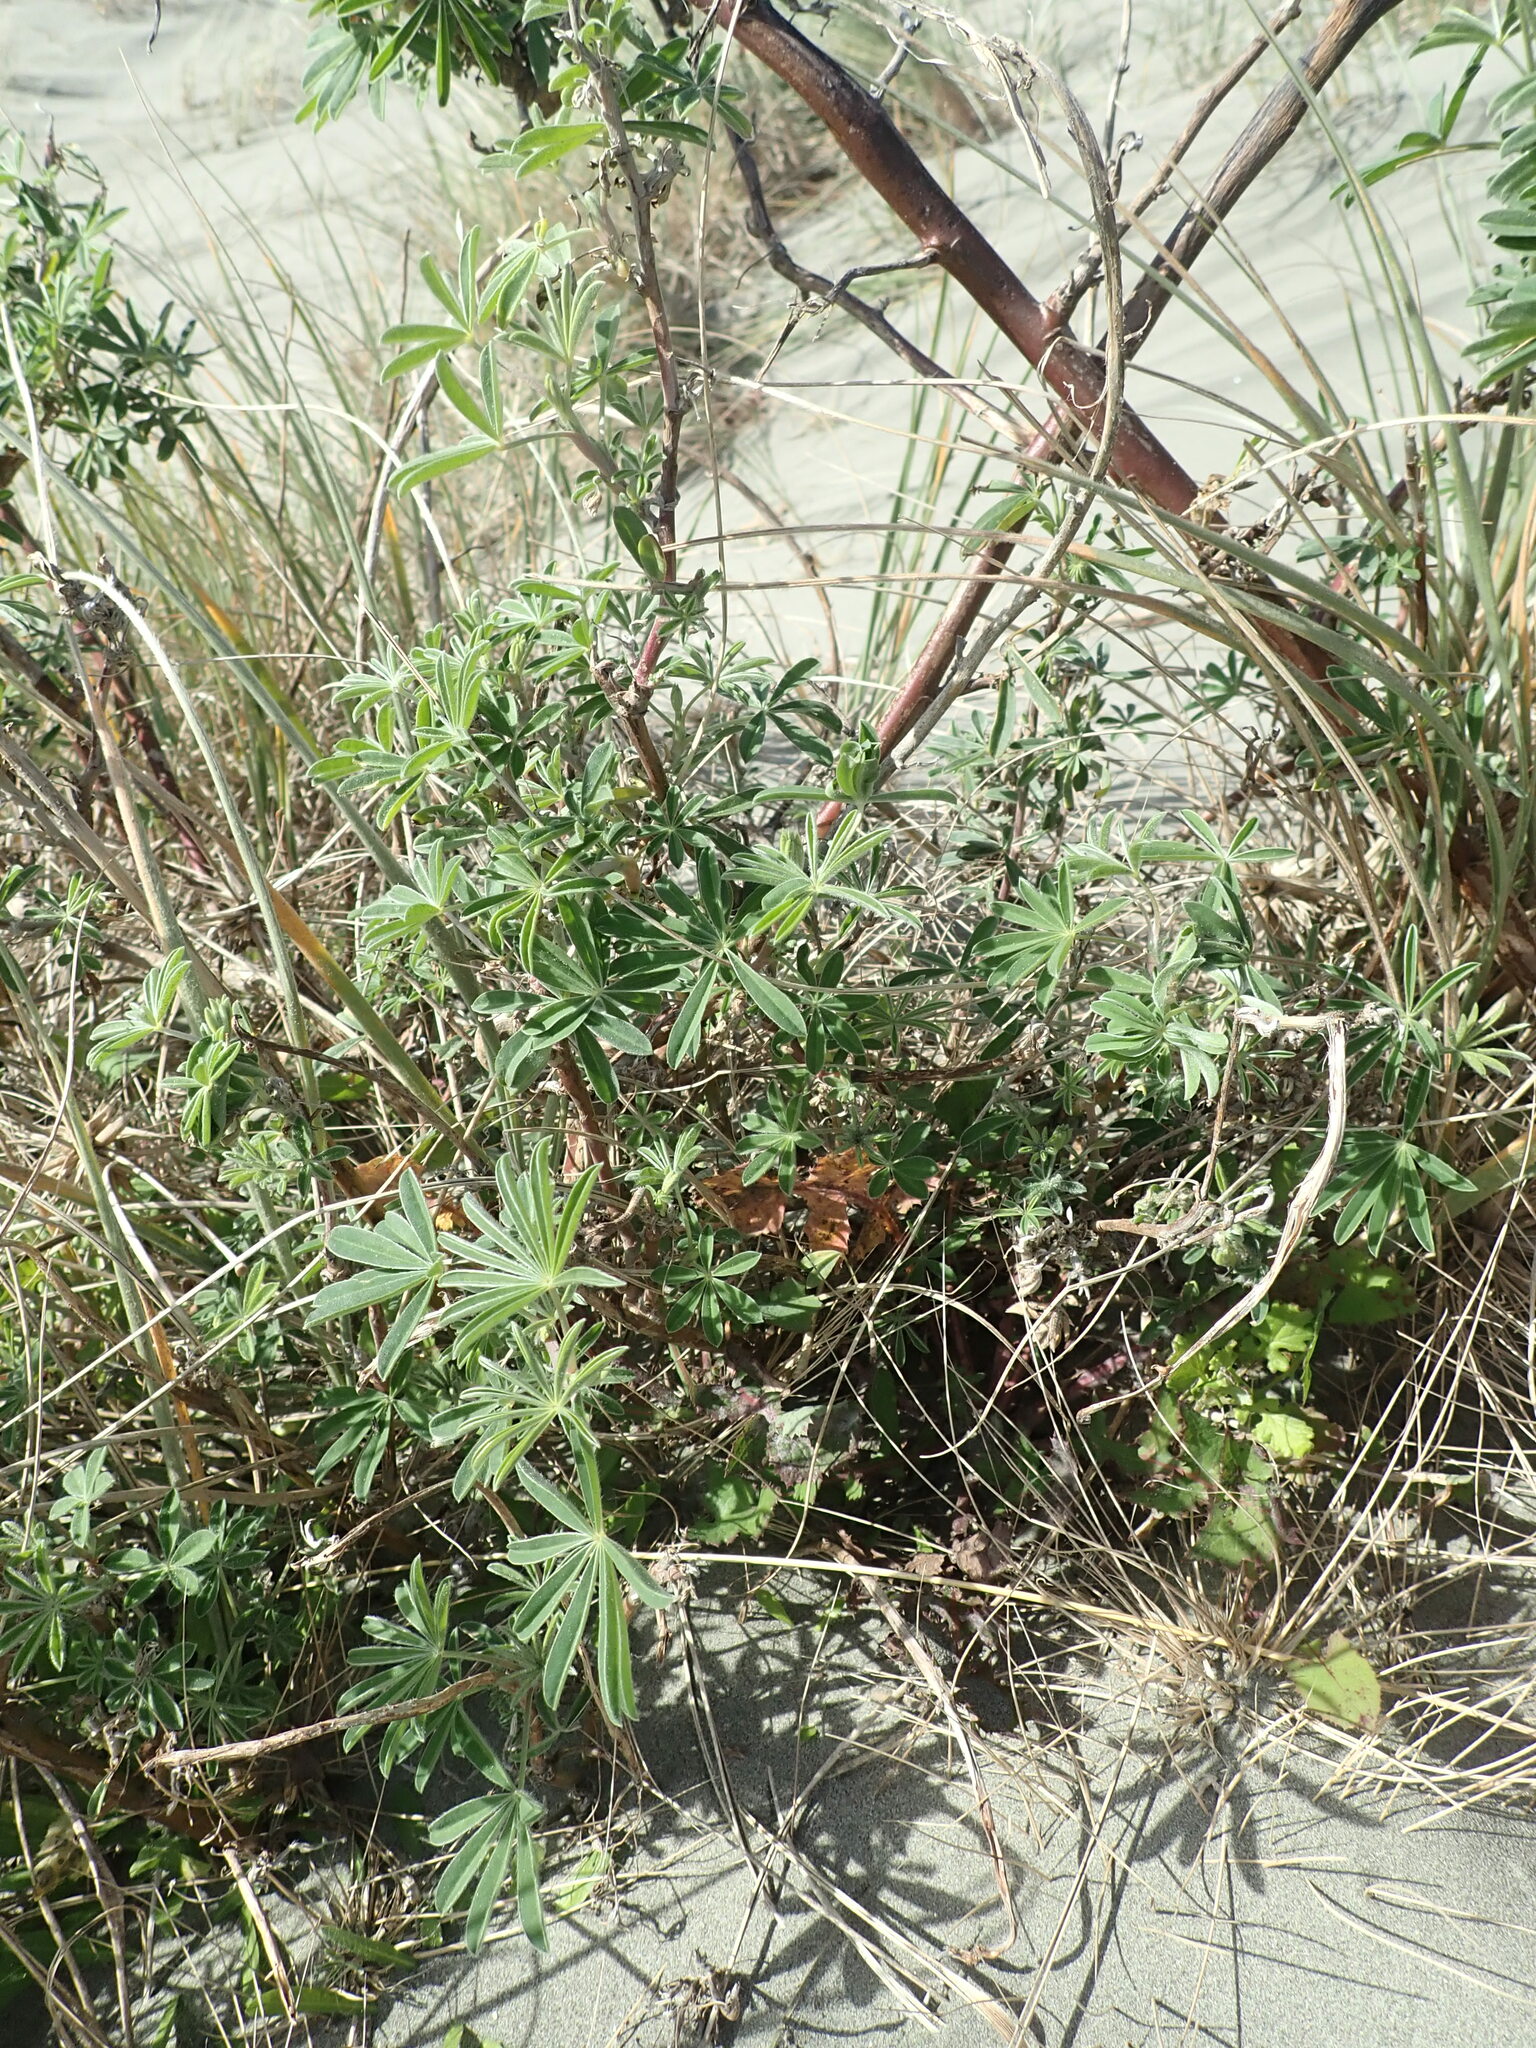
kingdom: Plantae
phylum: Tracheophyta
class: Magnoliopsida
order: Fabales
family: Fabaceae
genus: Lupinus
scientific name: Lupinus arboreus
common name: Yellow bush lupine
